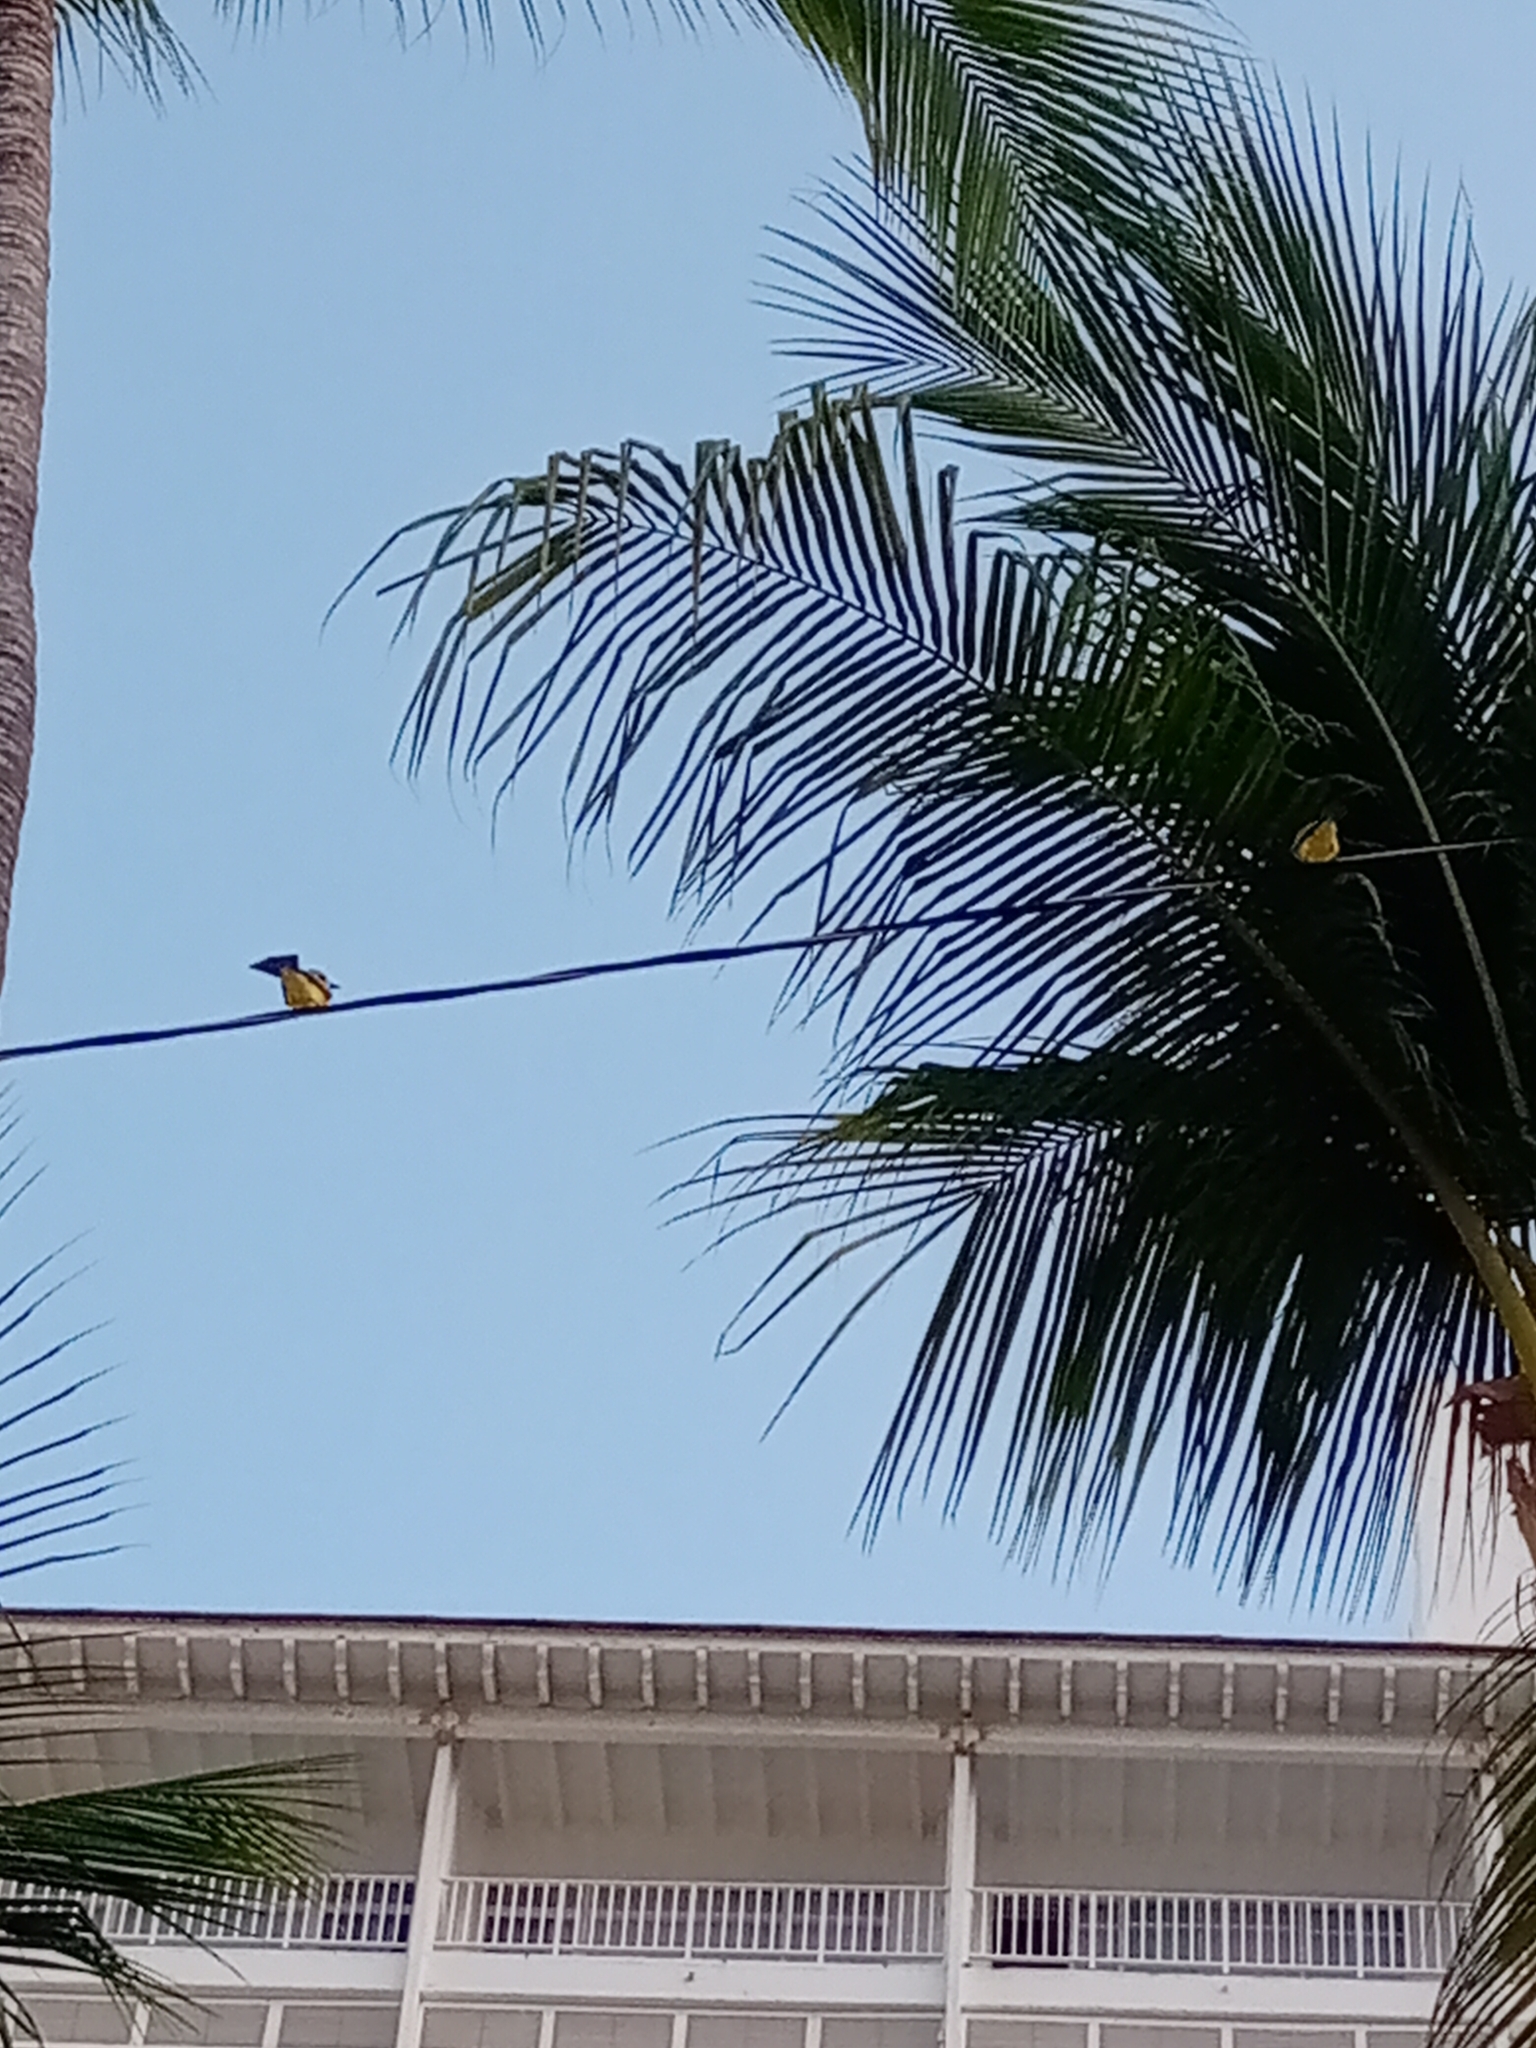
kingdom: Animalia
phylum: Chordata
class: Aves
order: Passeriformes
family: Tyrannidae
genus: Tyrannus
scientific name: Tyrannus melancholicus
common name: Tropical kingbird
